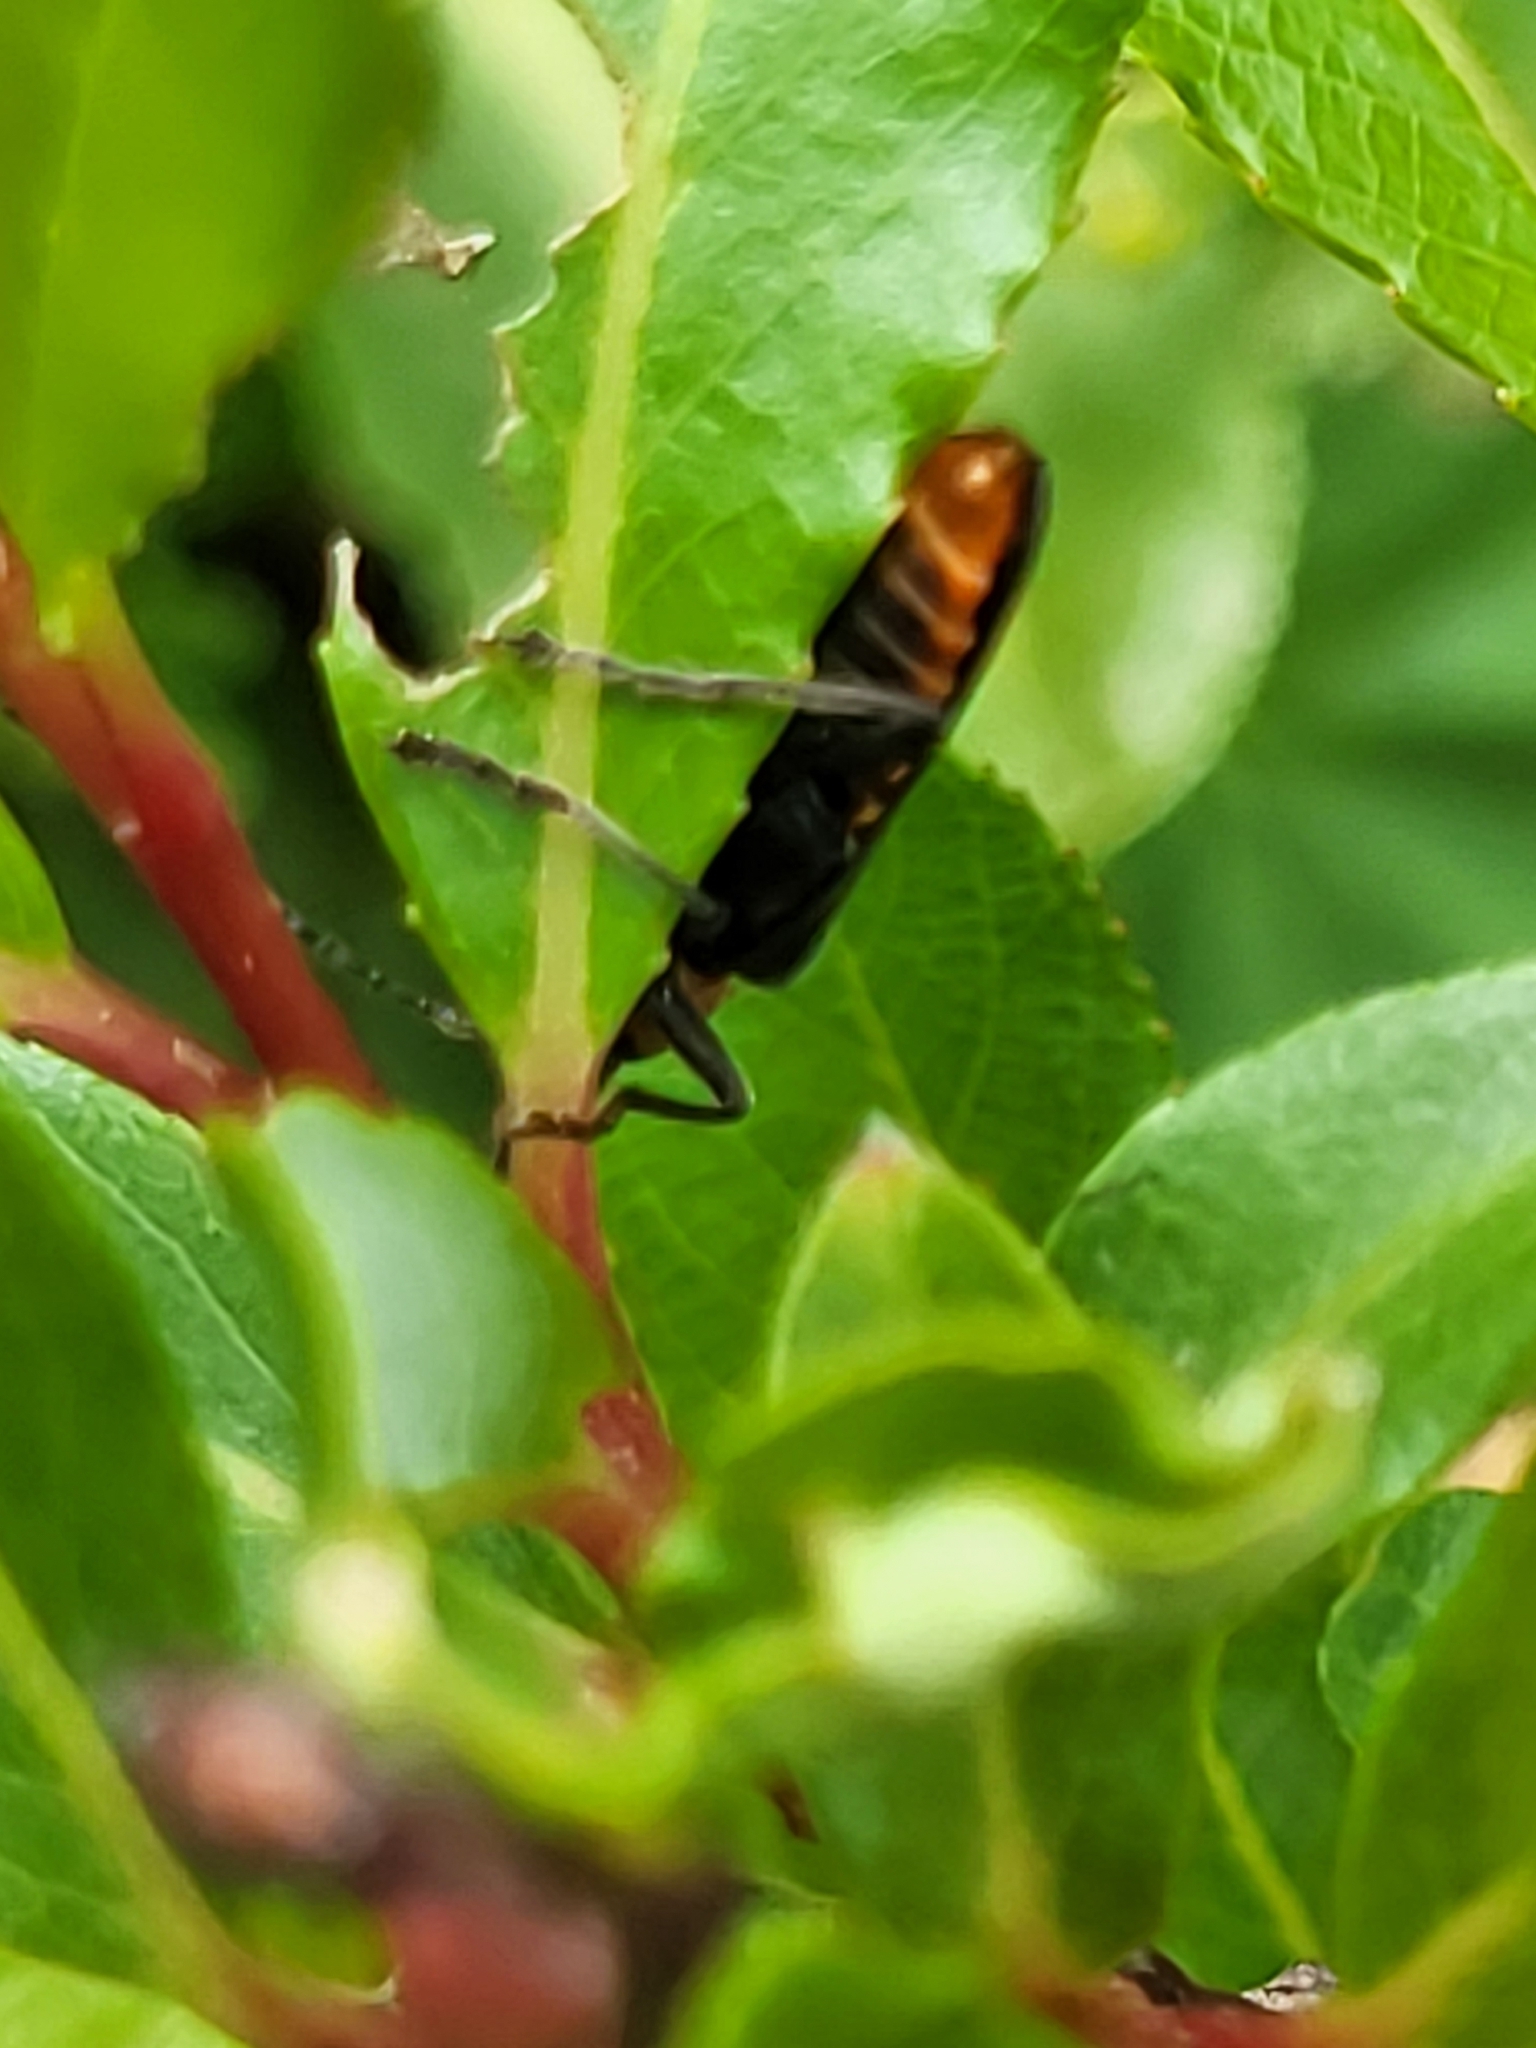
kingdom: Animalia
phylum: Arthropoda
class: Insecta
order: Coleoptera
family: Cantharidae
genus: Cordicantharis
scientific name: Cordicantharis cordicollis
